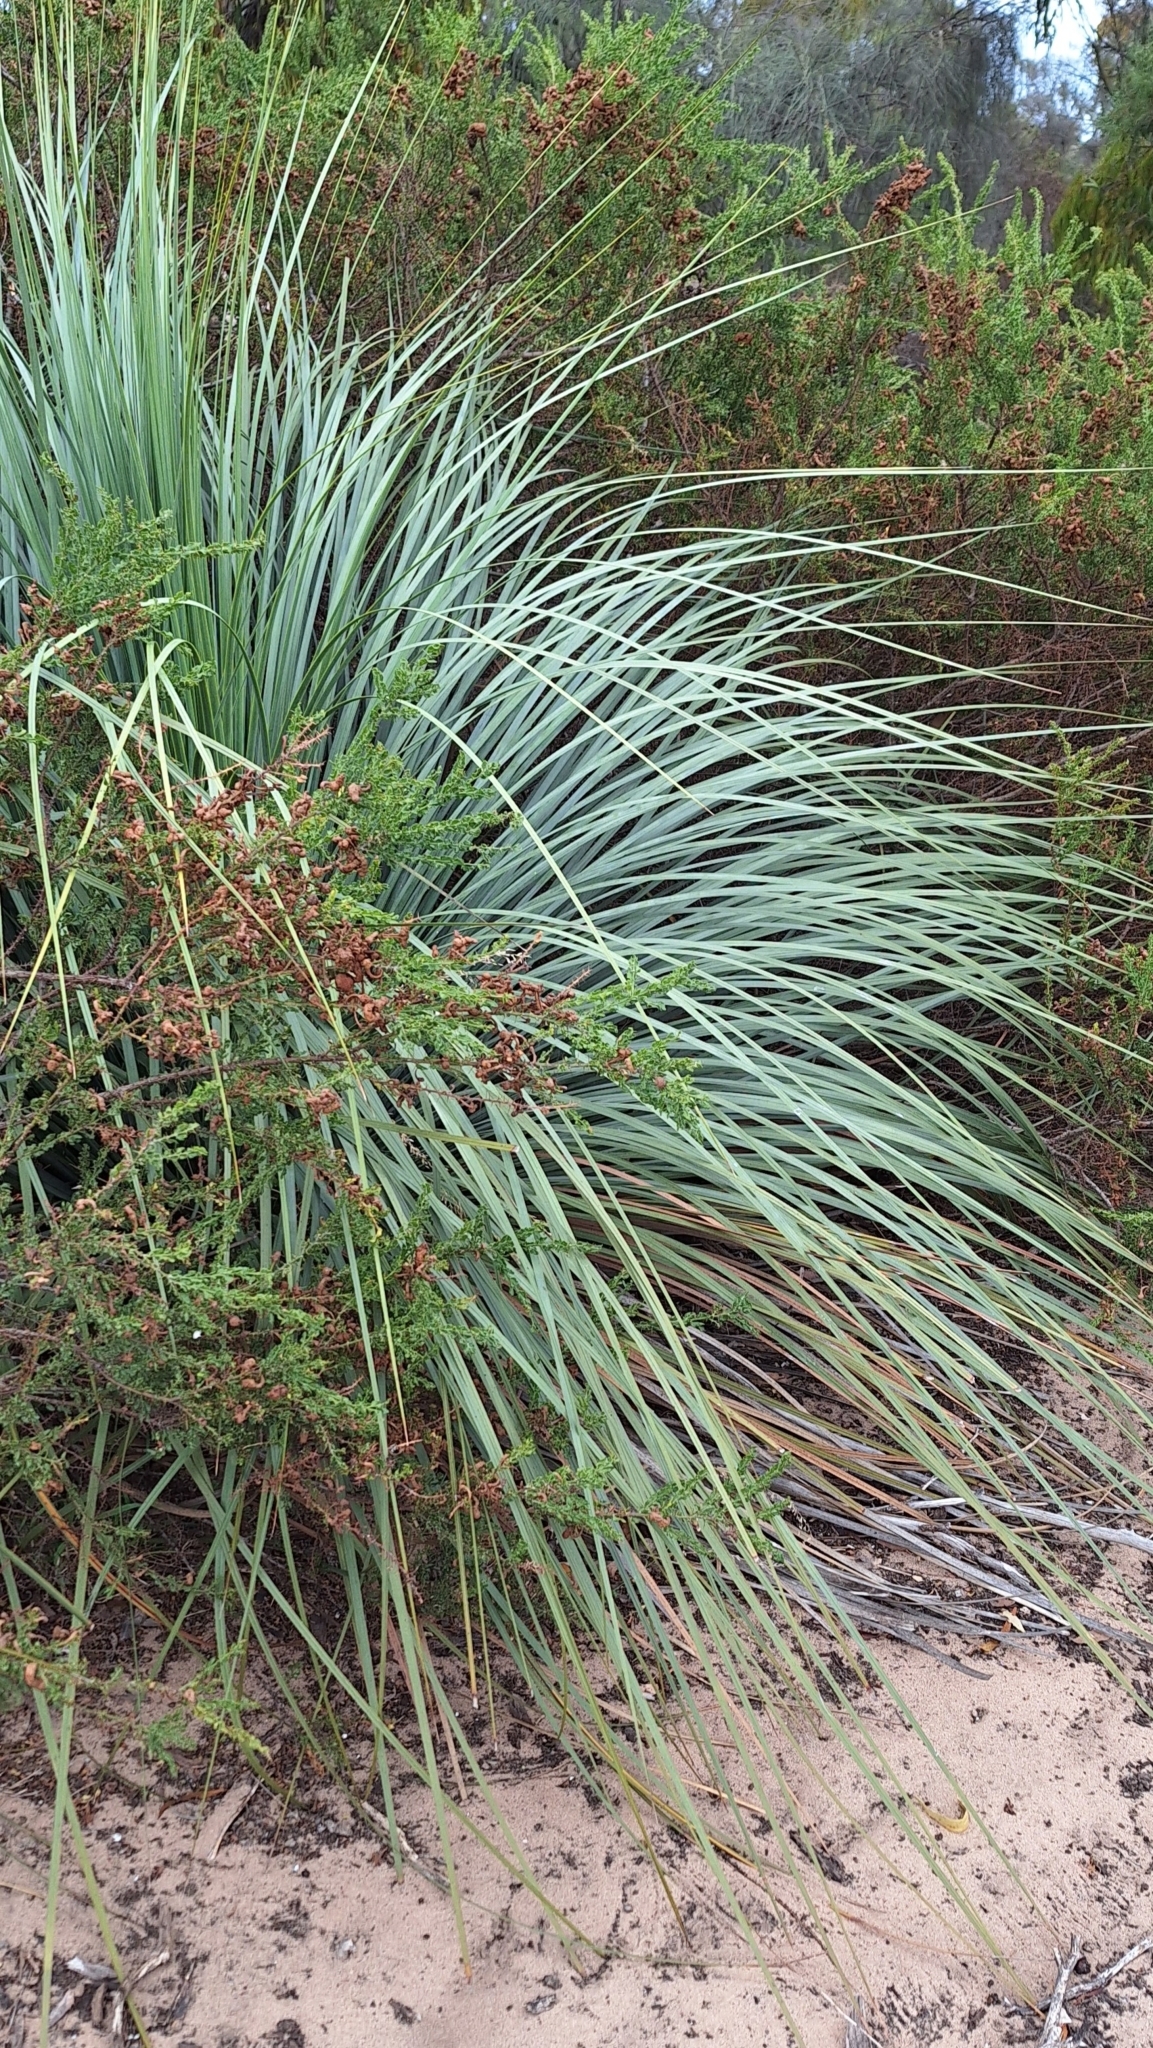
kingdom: Plantae
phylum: Tracheophyta
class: Liliopsida
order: Asparagales
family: Asphodelaceae
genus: Xanthorrhoea
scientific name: Xanthorrhoea semiplana
